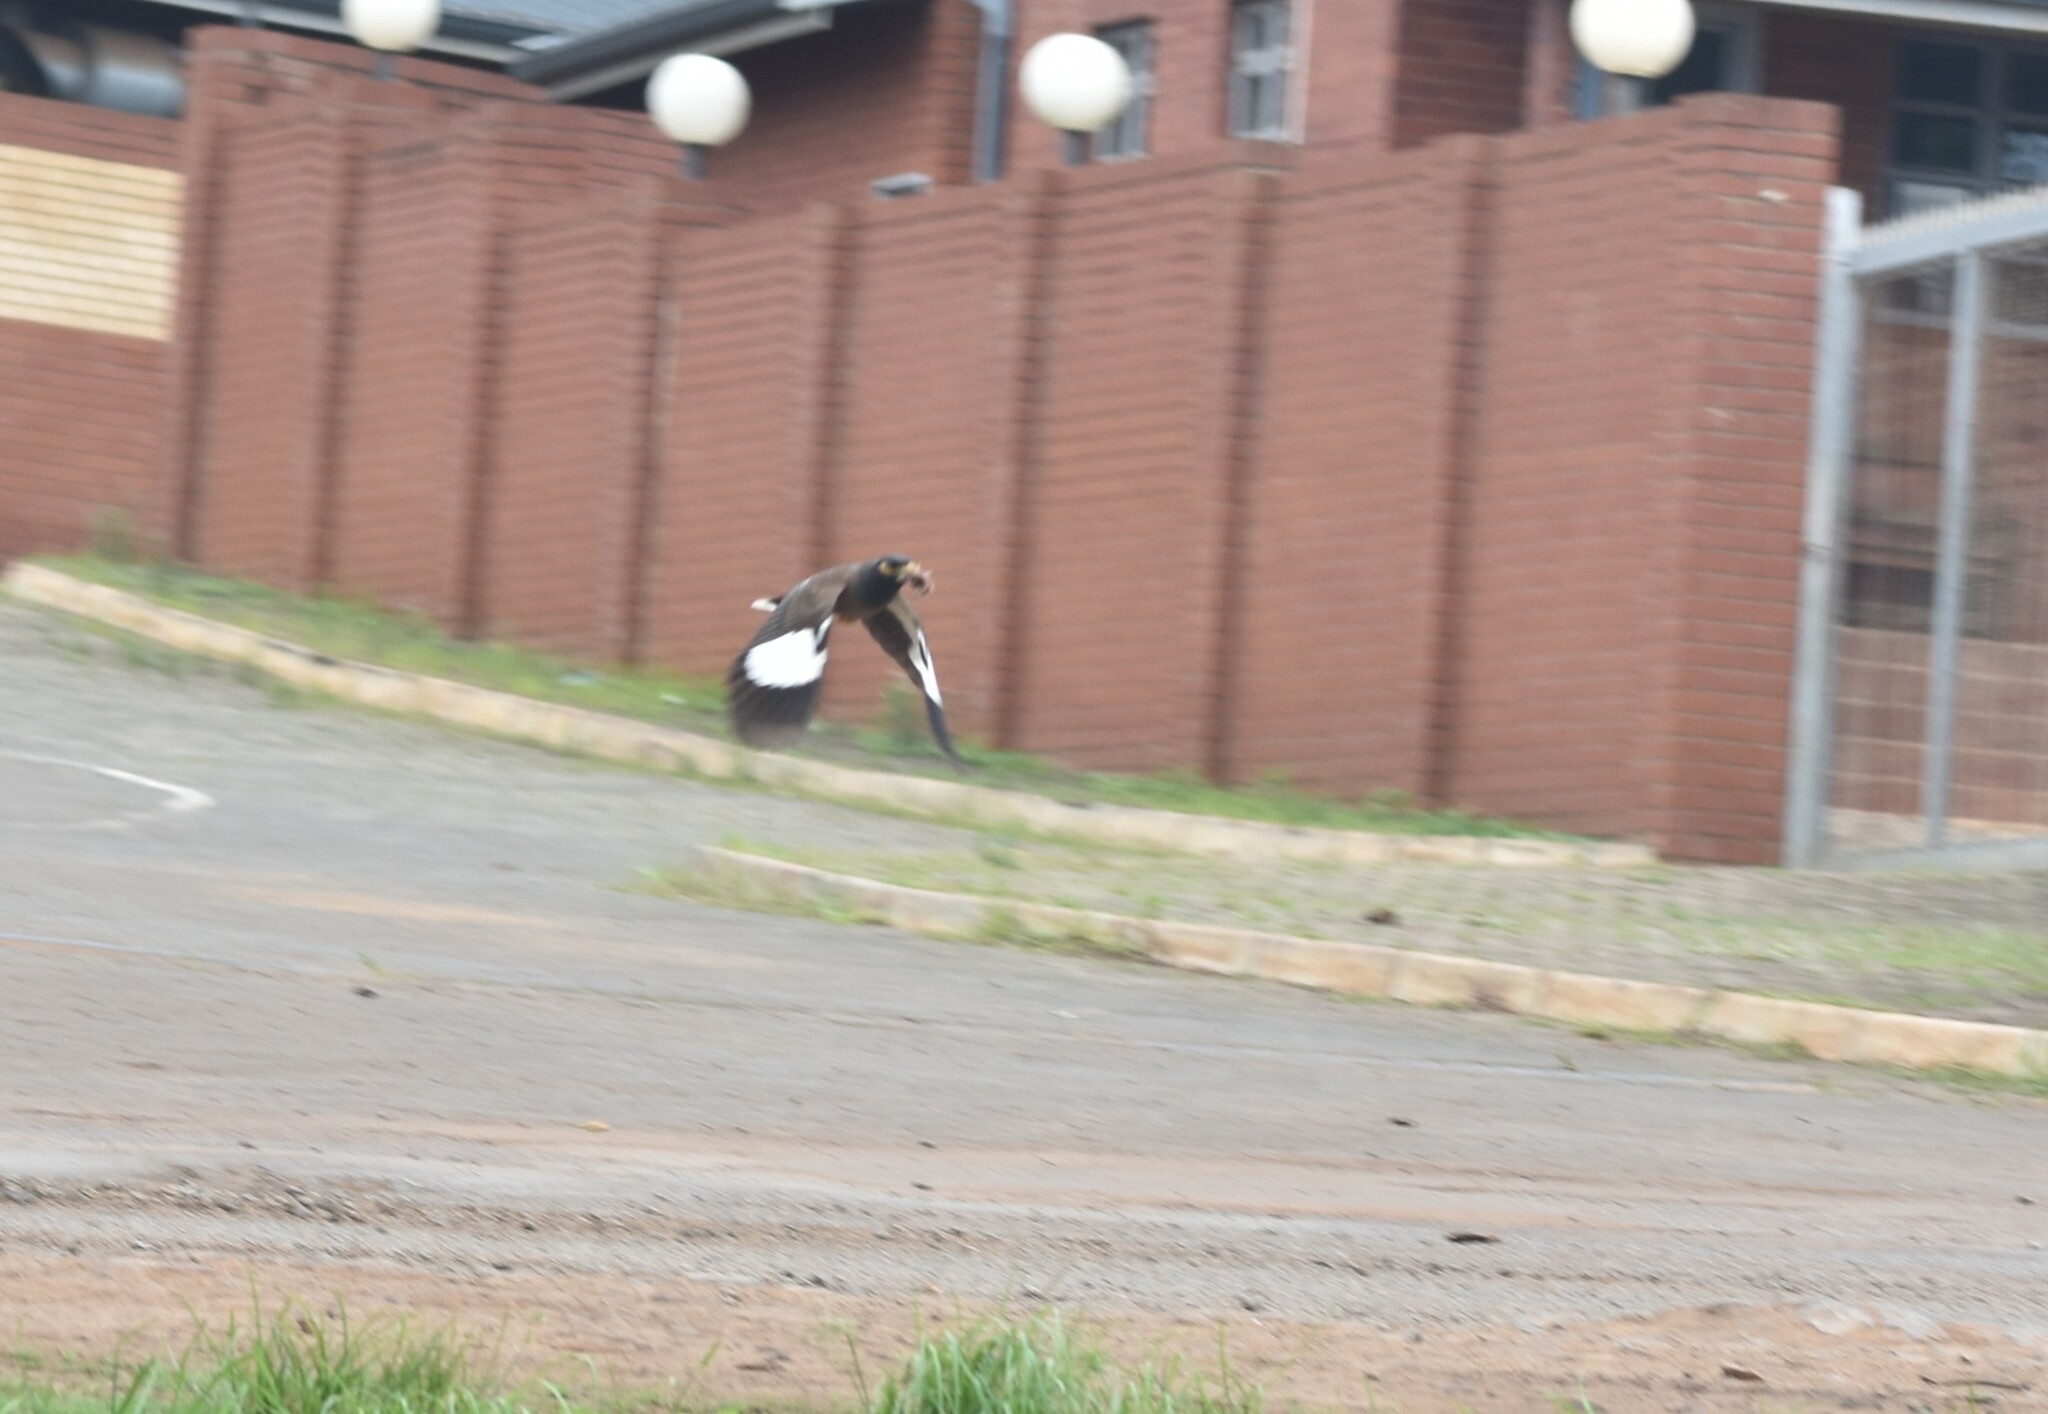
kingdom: Animalia
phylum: Chordata
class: Aves
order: Passeriformes
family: Sturnidae
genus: Acridotheres
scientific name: Acridotheres tristis
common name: Common myna
